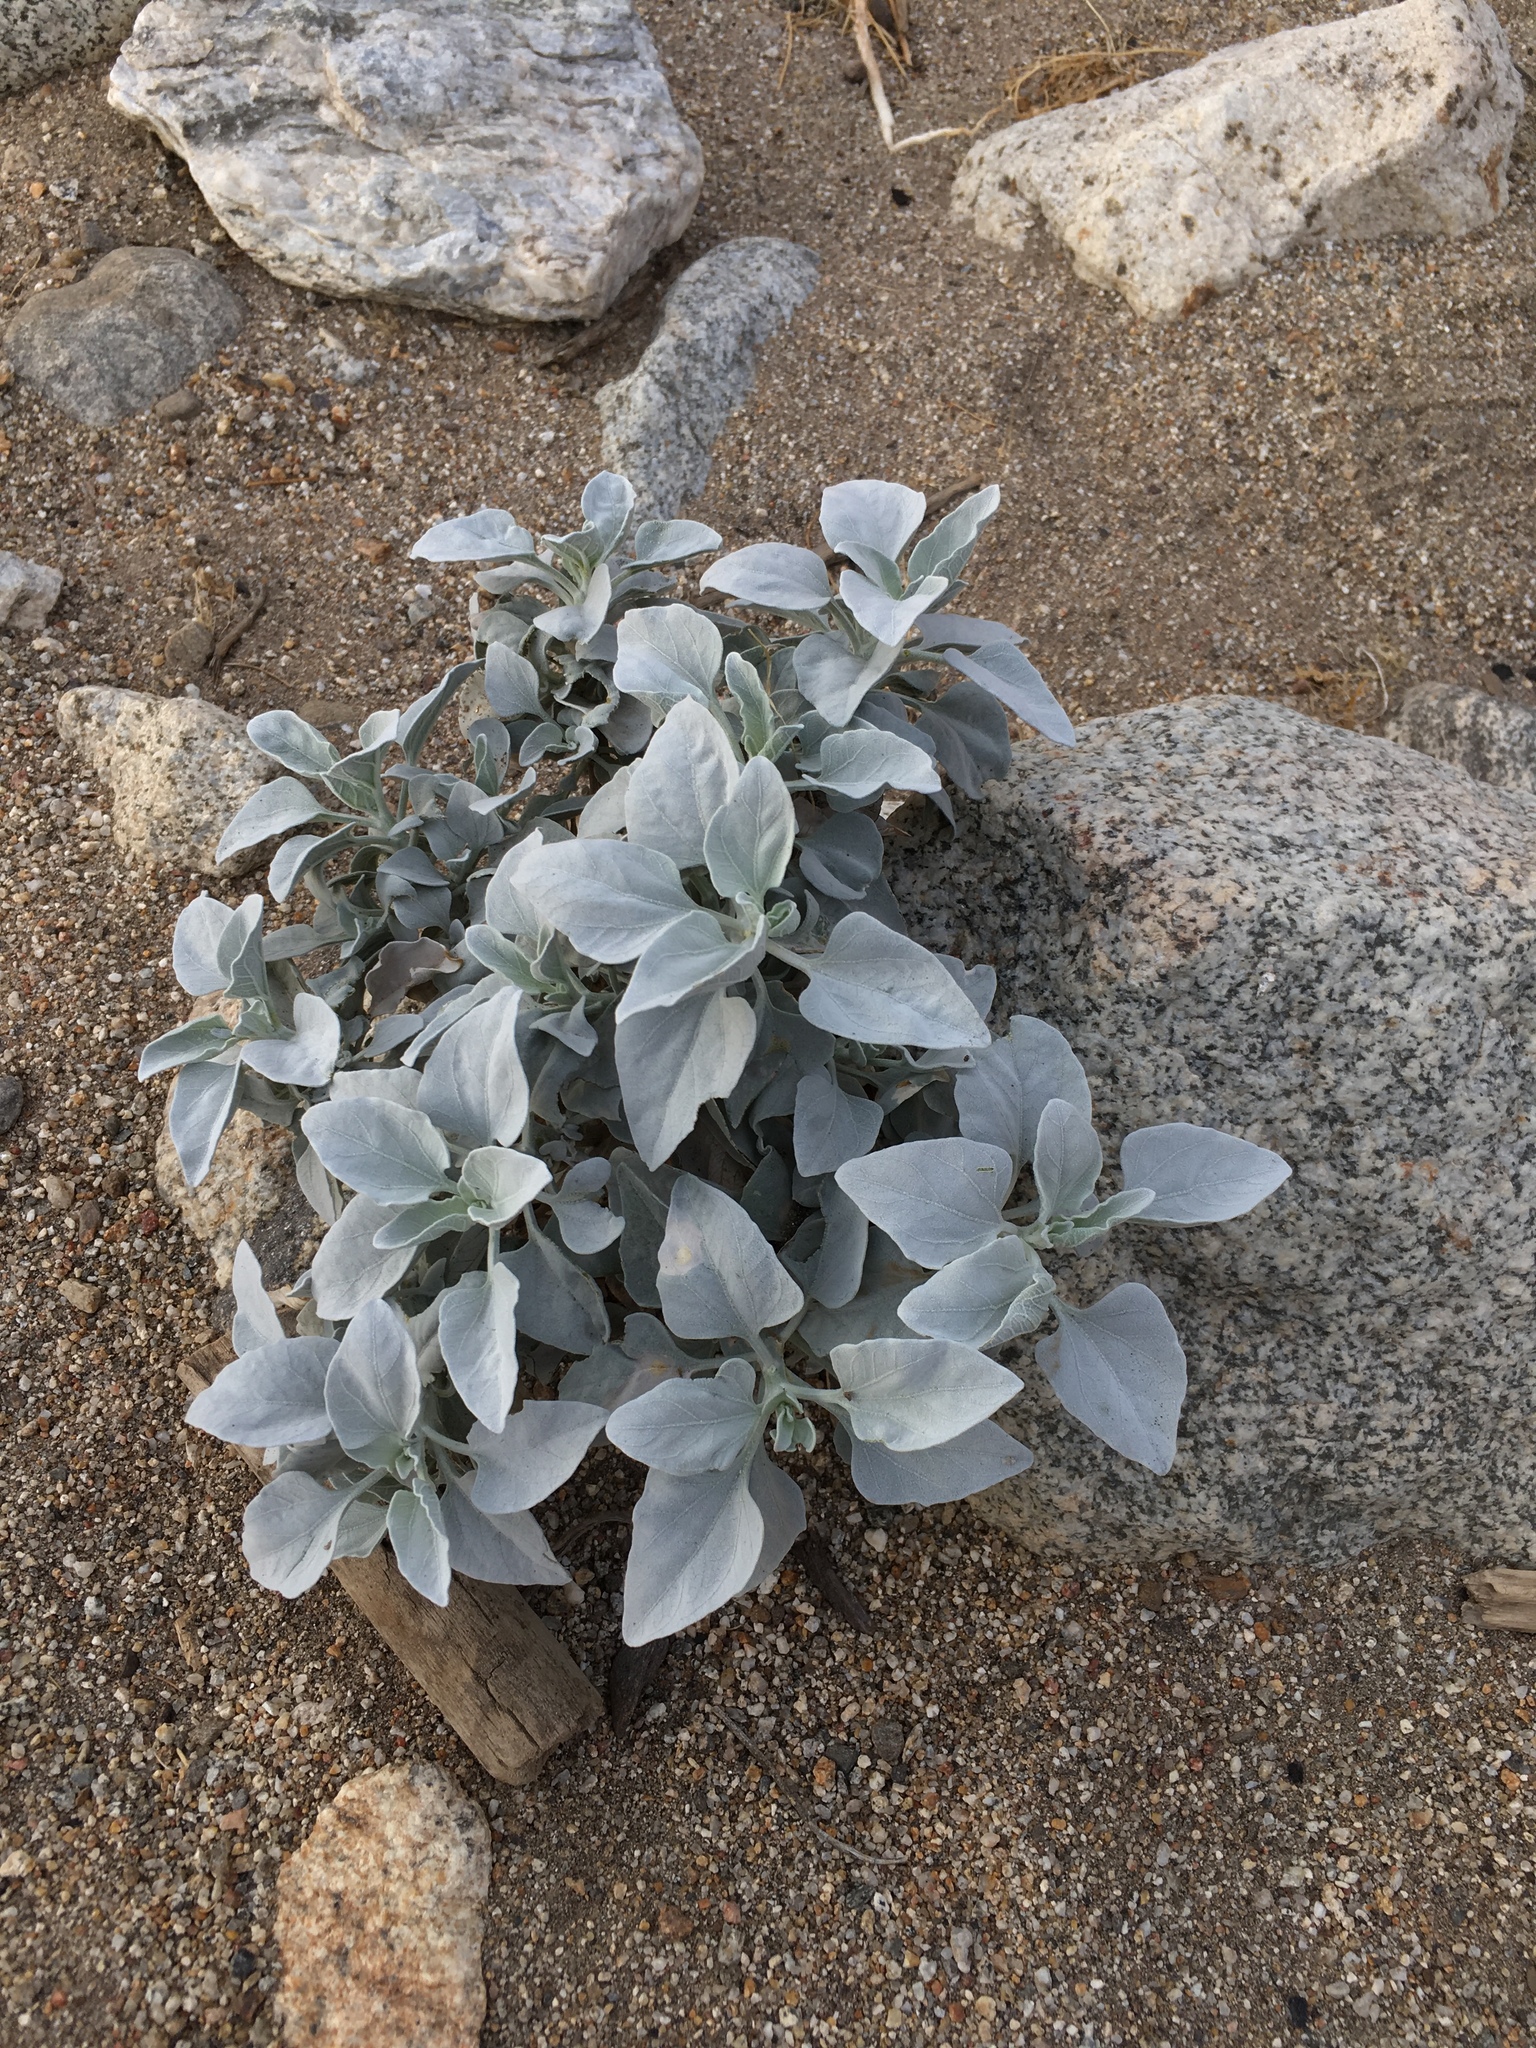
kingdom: Plantae
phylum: Tracheophyta
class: Magnoliopsida
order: Asterales
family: Asteraceae
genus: Encelia
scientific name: Encelia farinosa
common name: Brittlebush
